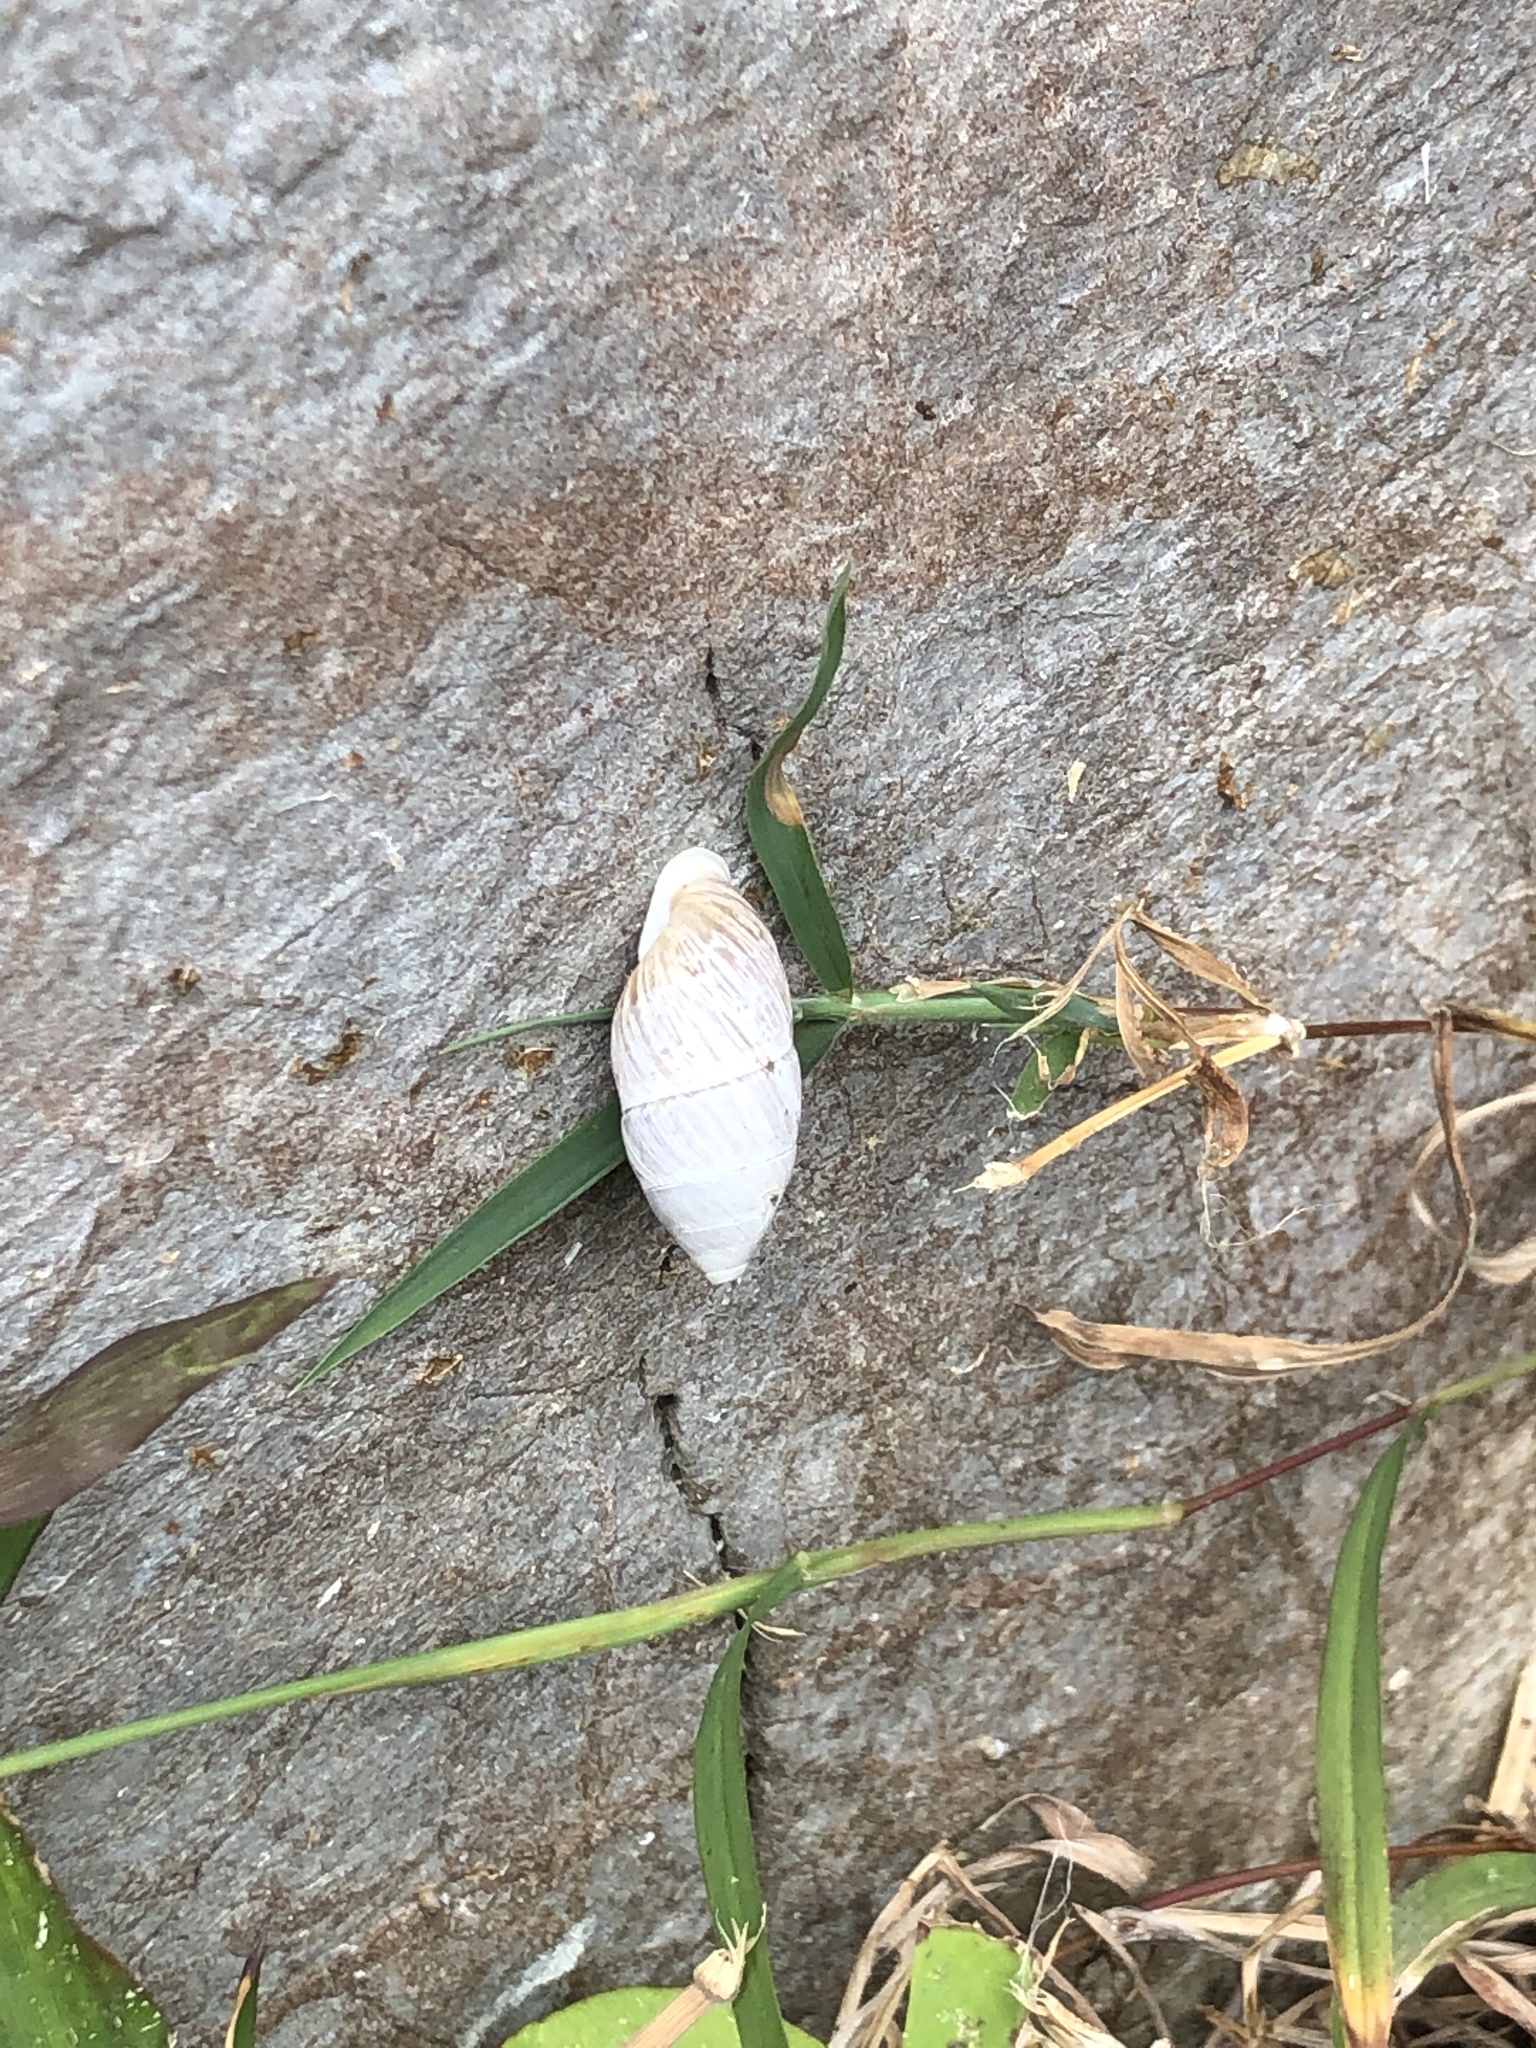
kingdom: Animalia
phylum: Mollusca
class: Gastropoda
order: Stylommatophora
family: Enidae
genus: Luchuena
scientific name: Luchuena reticulata
